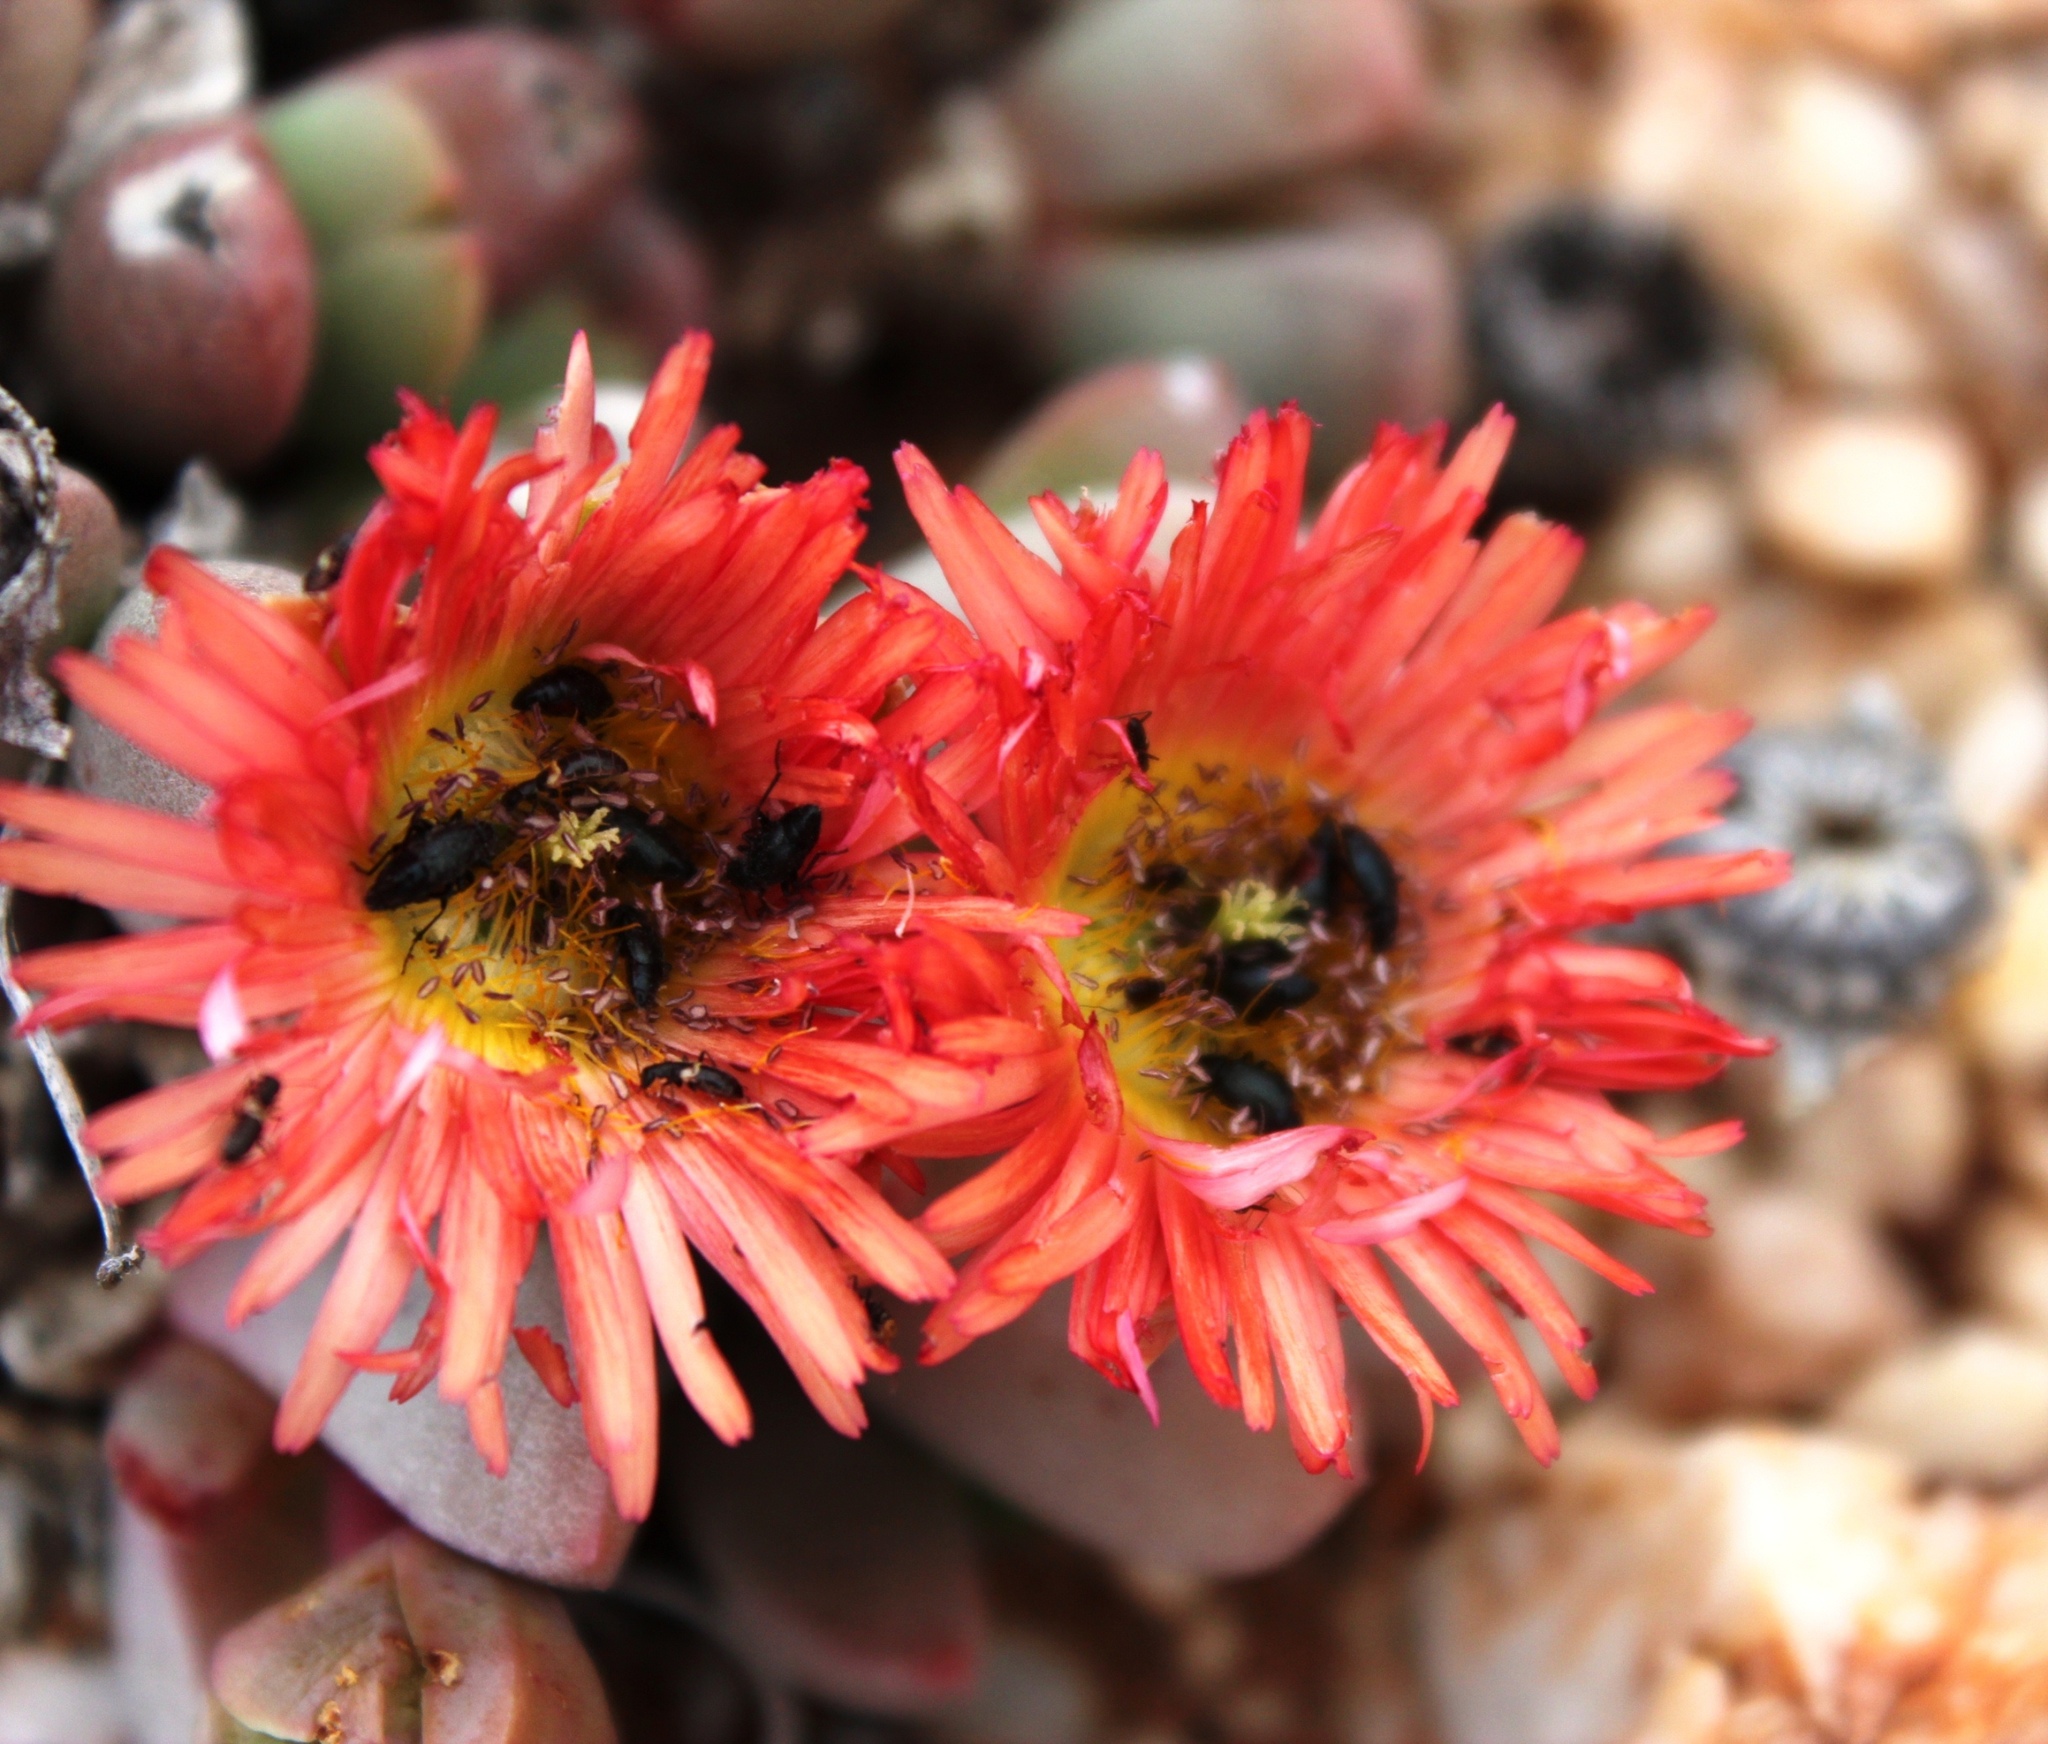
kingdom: Plantae
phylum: Tracheophyta
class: Magnoliopsida
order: Caryophyllales
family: Aizoaceae
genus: Cephalophyllum
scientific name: Cephalophyllum spissum
